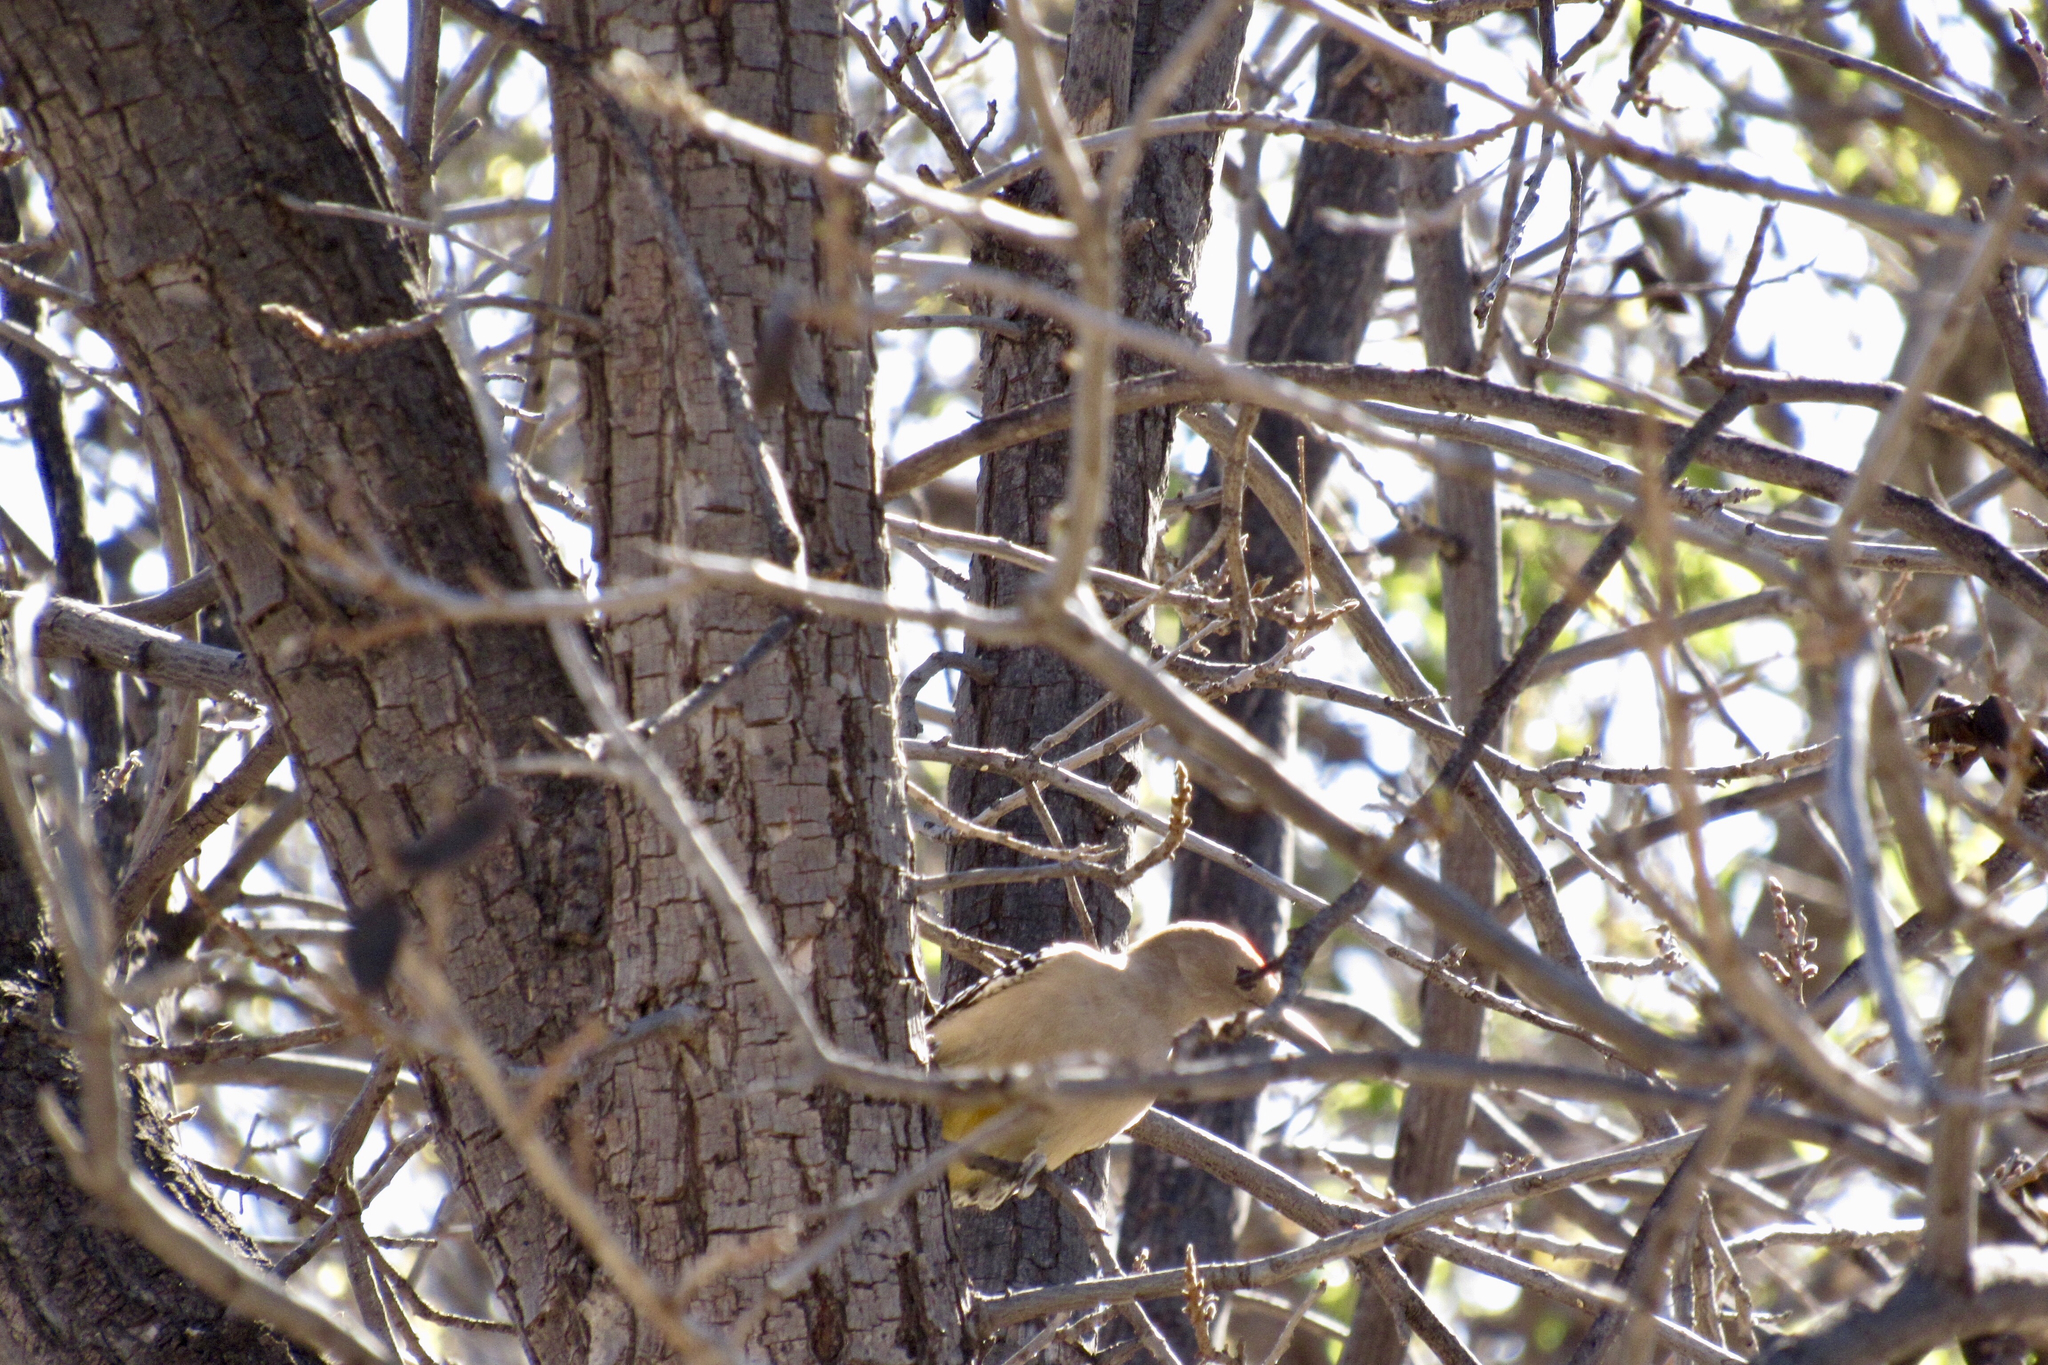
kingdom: Animalia
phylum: Chordata
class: Aves
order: Piciformes
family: Picidae
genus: Melanerpes
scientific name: Melanerpes uropygialis
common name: Gila woodpecker
